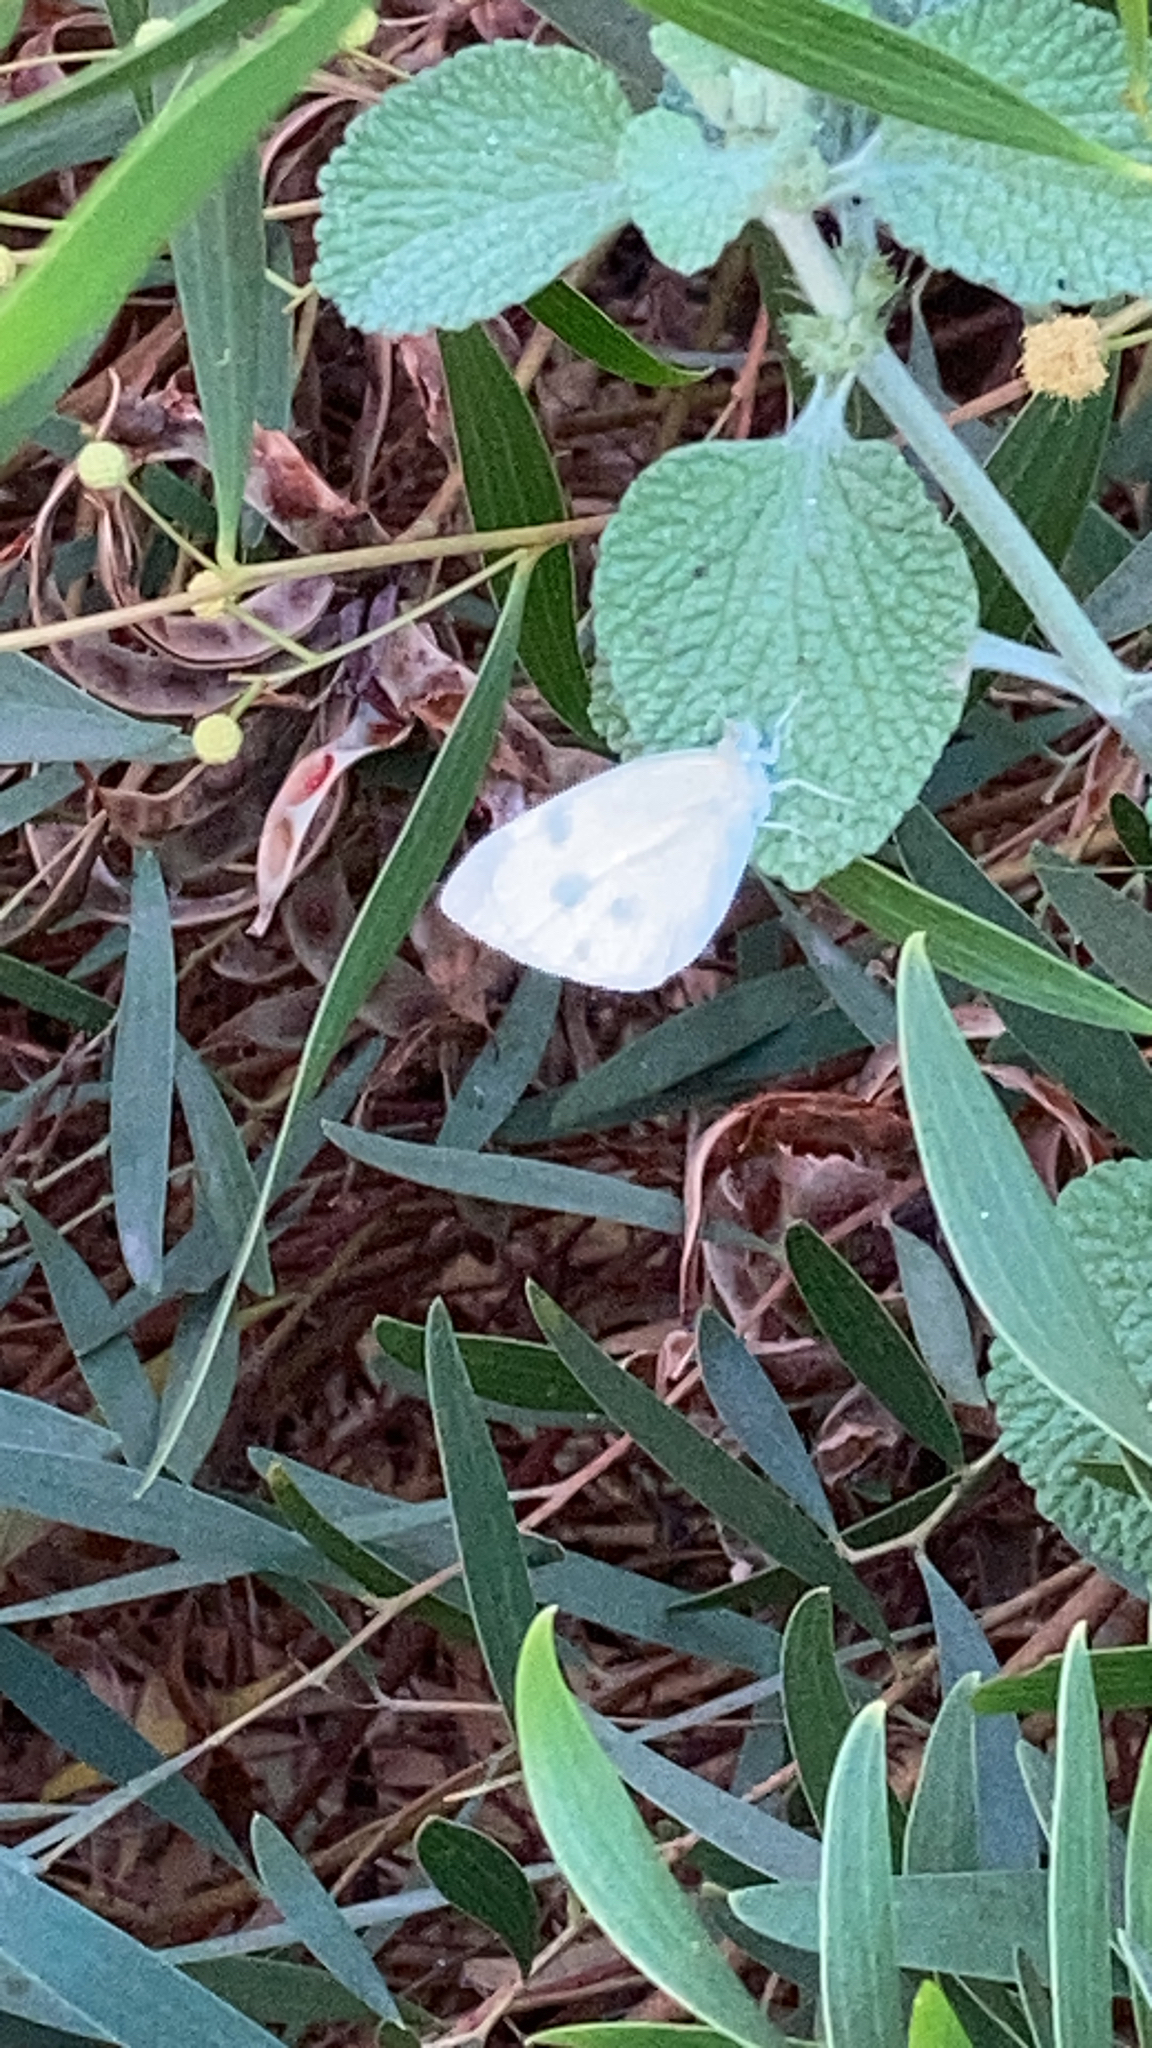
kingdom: Animalia
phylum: Arthropoda
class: Insecta
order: Lepidoptera
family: Pieridae
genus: Pieris
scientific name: Pieris rapae
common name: Small white
